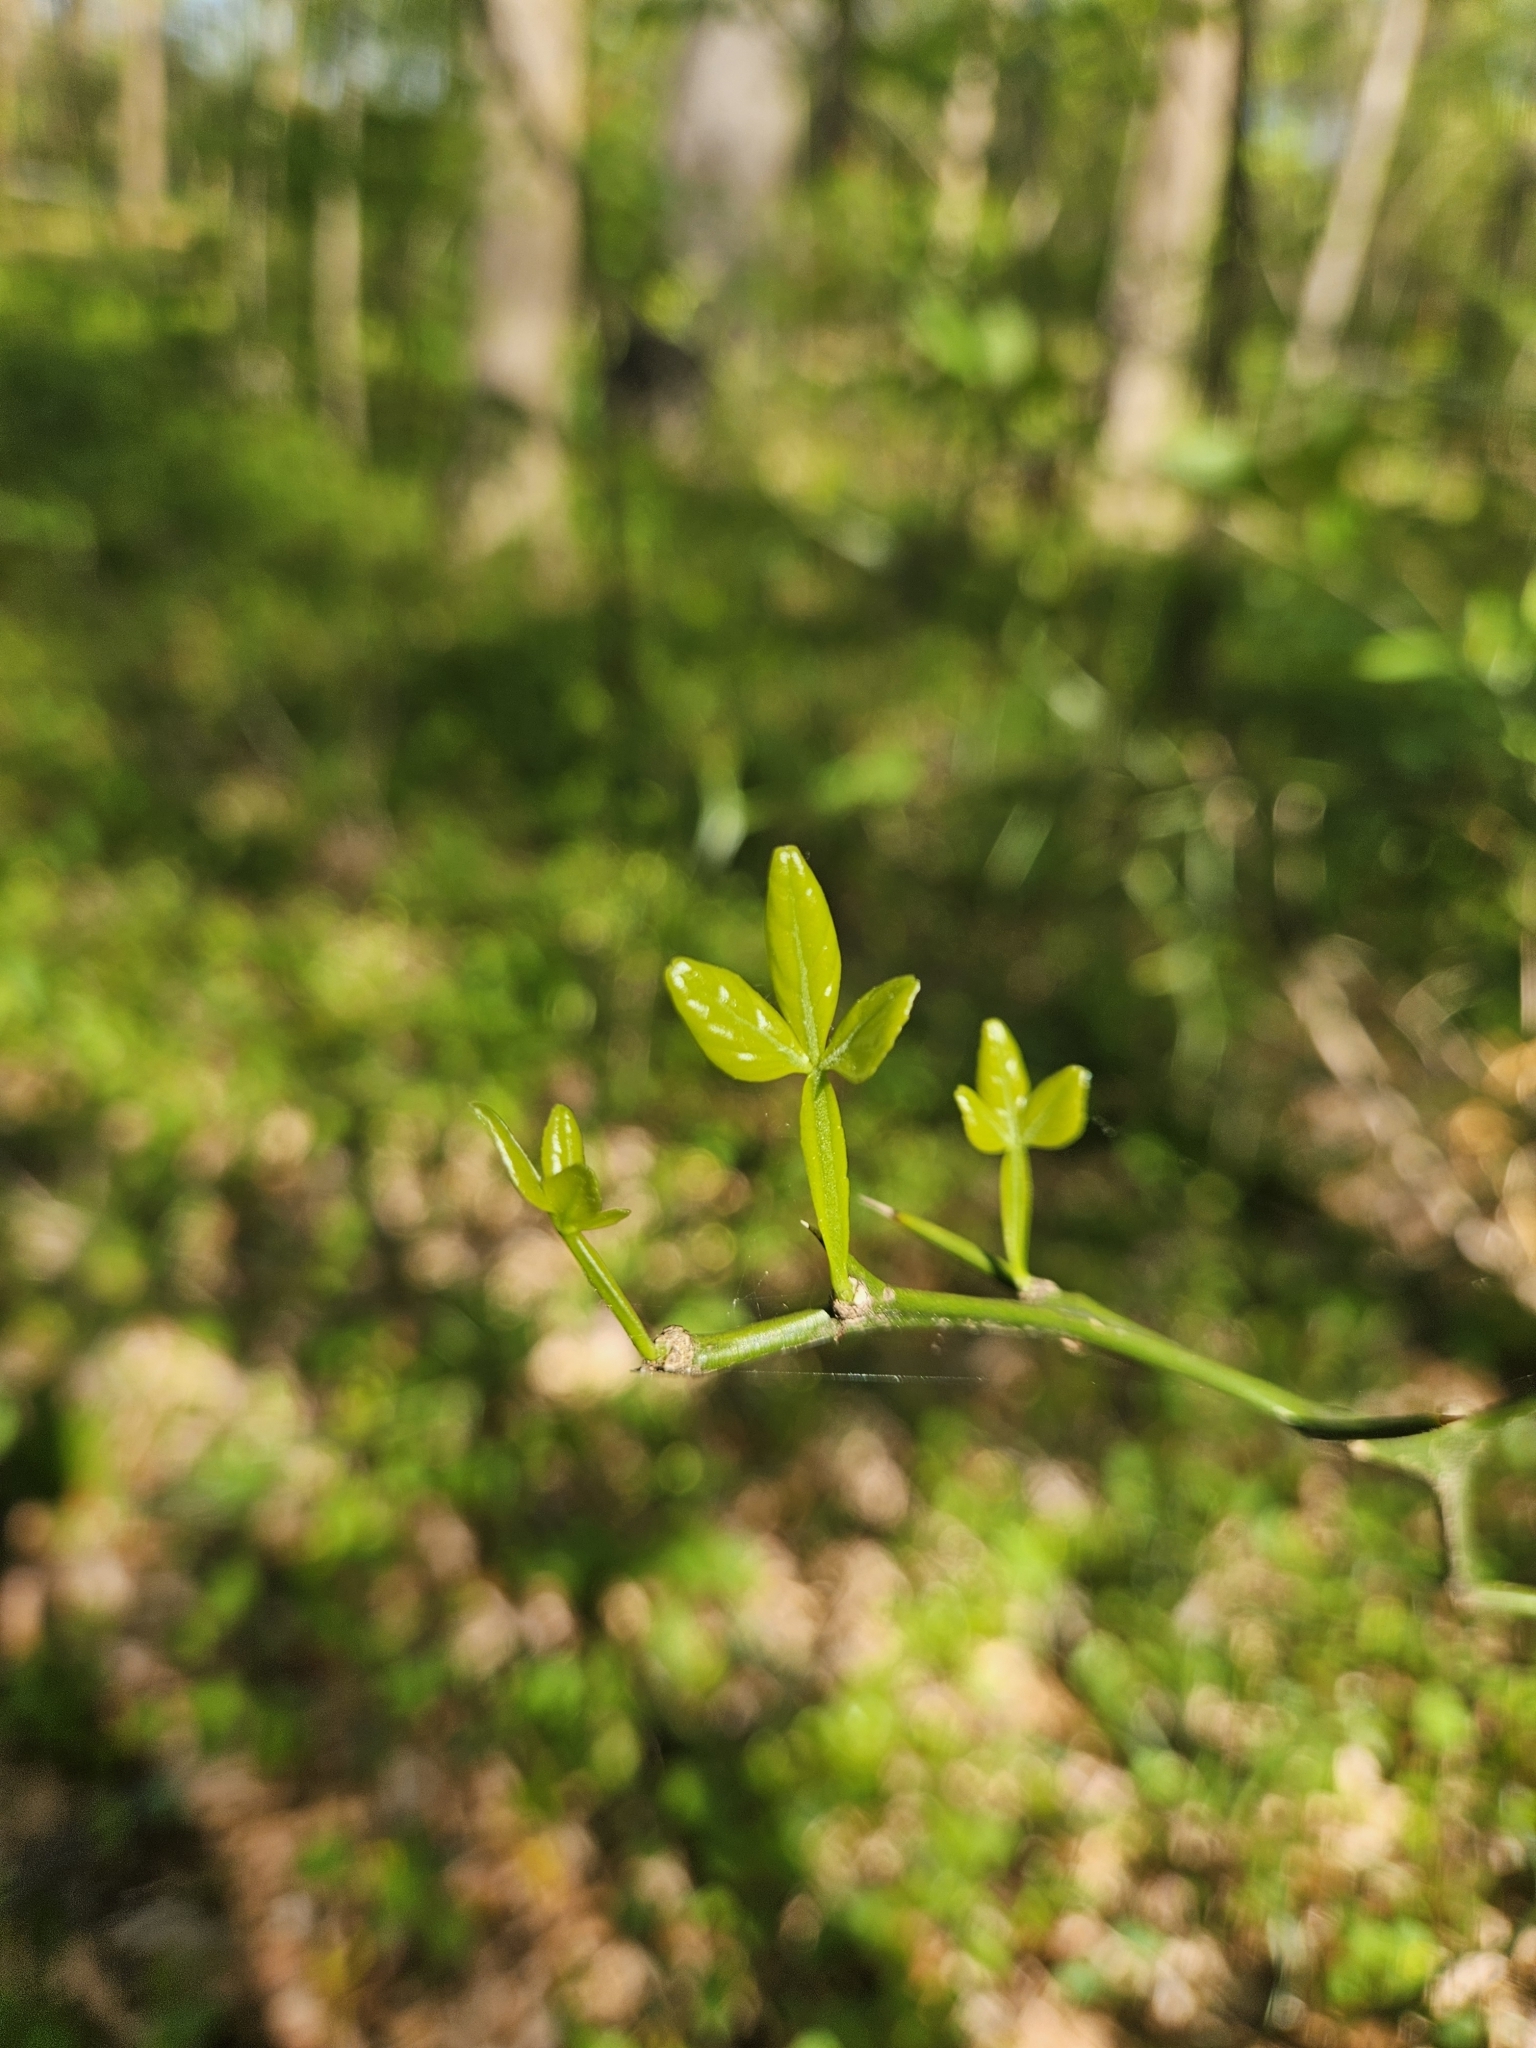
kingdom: Plantae
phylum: Tracheophyta
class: Magnoliopsida
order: Sapindales
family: Rutaceae
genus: Citrus
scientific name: Citrus trifoliata
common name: Japanese bitter-orange
